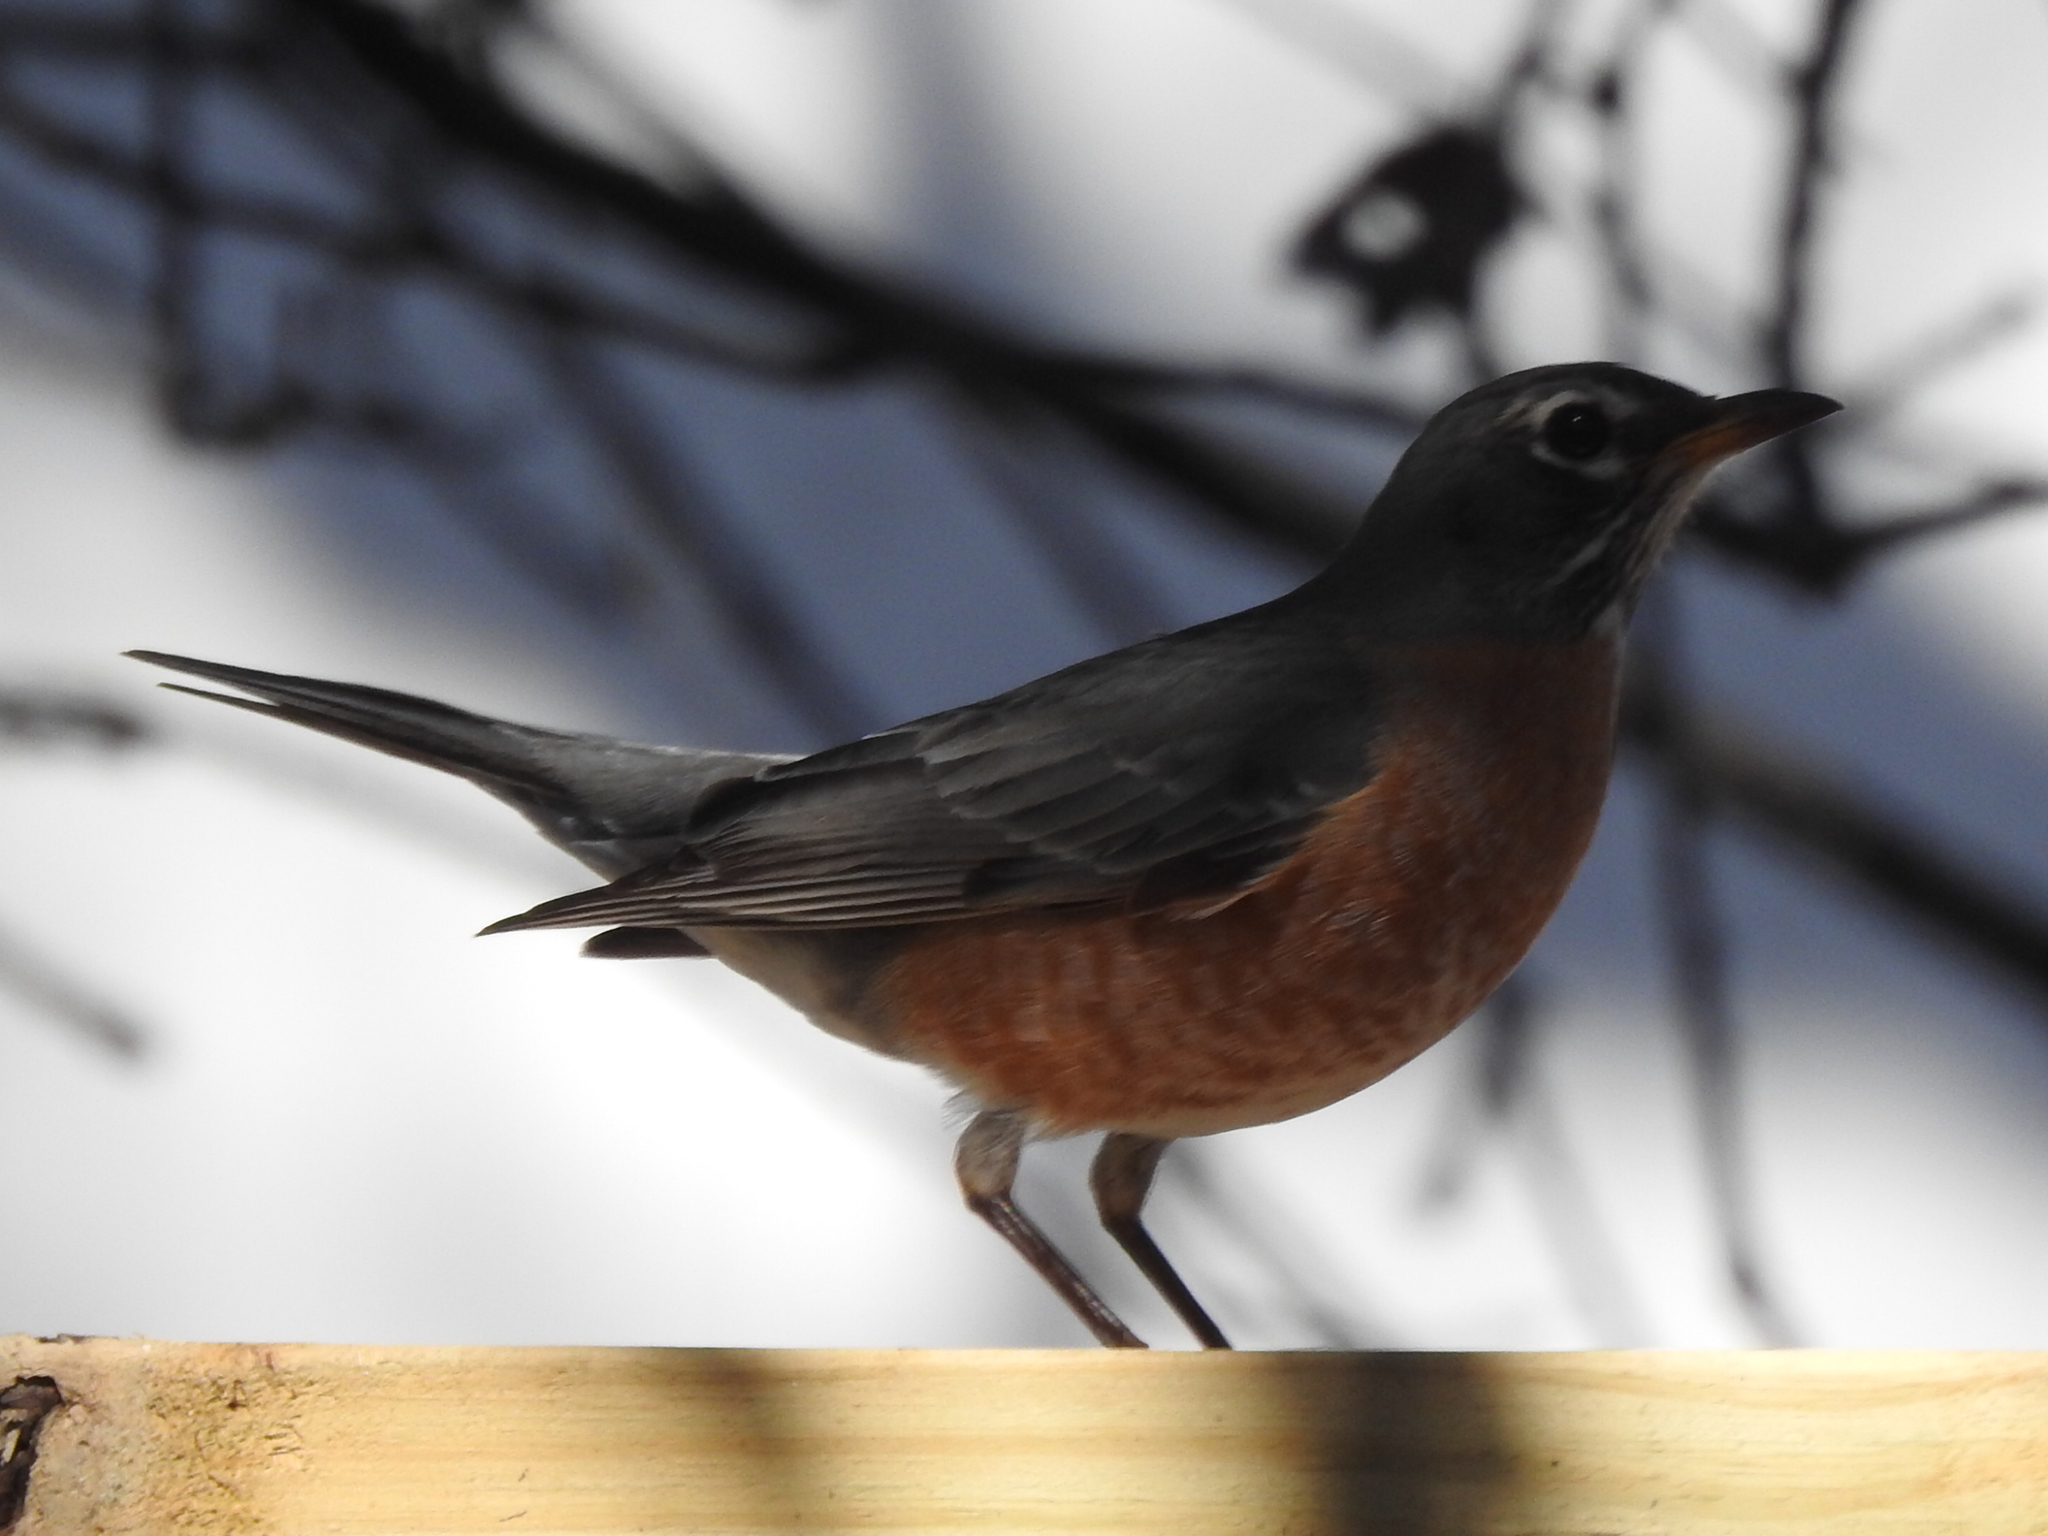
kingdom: Animalia
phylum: Chordata
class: Aves
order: Passeriformes
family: Turdidae
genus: Turdus
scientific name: Turdus migratorius
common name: American robin
